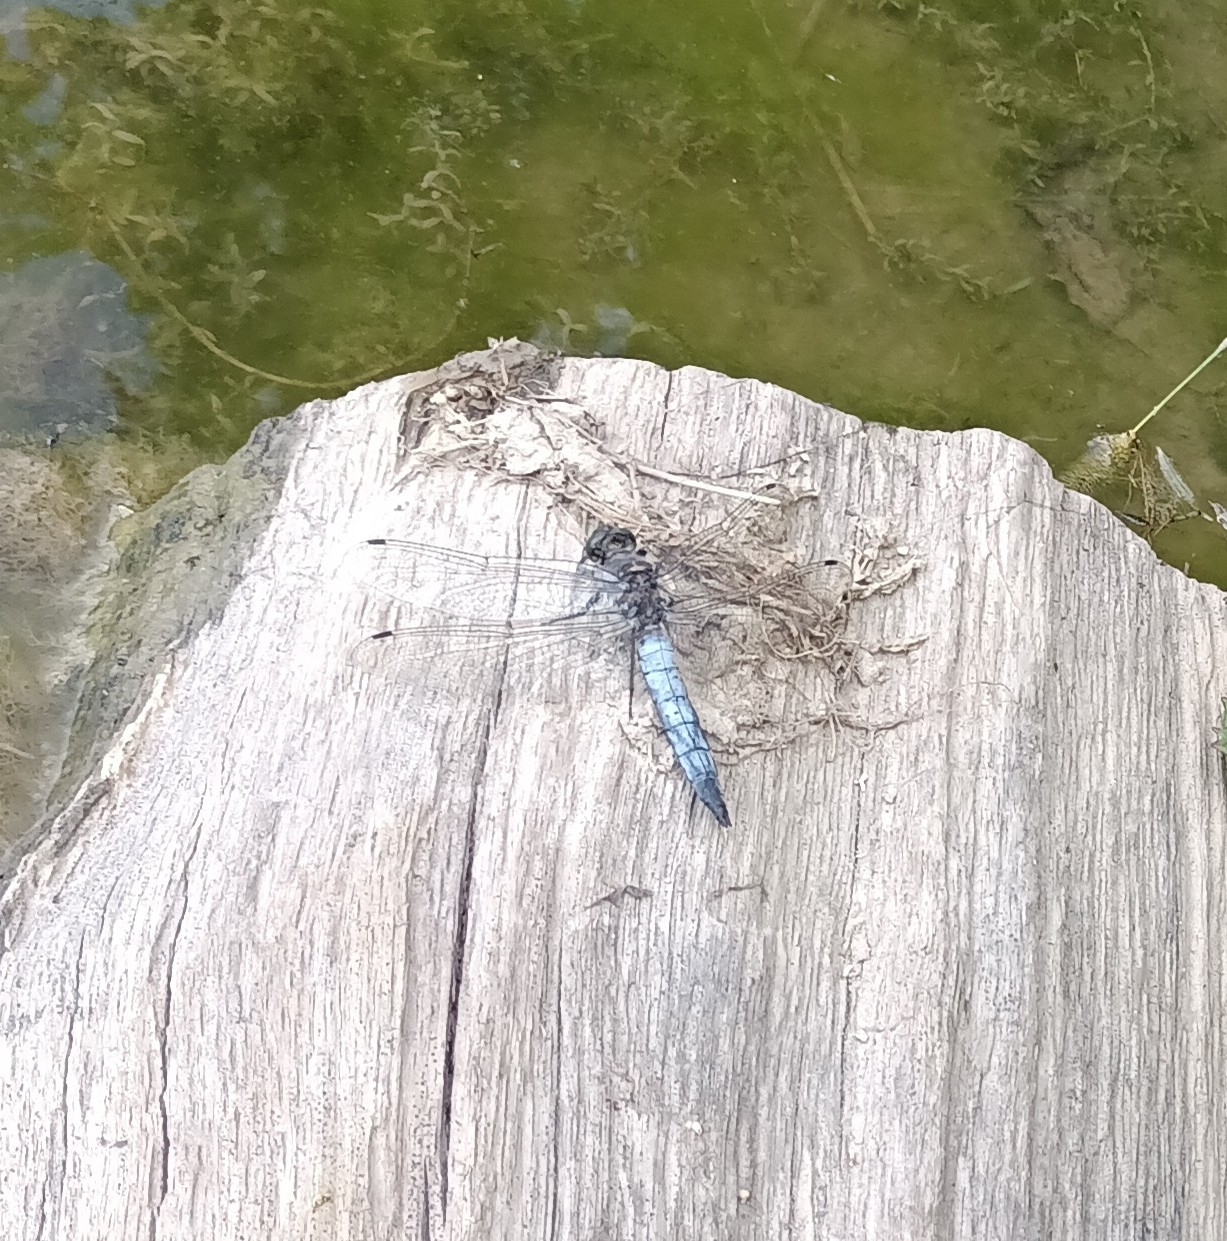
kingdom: Animalia
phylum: Arthropoda
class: Insecta
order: Odonata
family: Libellulidae
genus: Orthetrum
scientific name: Orthetrum cancellatum
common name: Black-tailed skimmer
